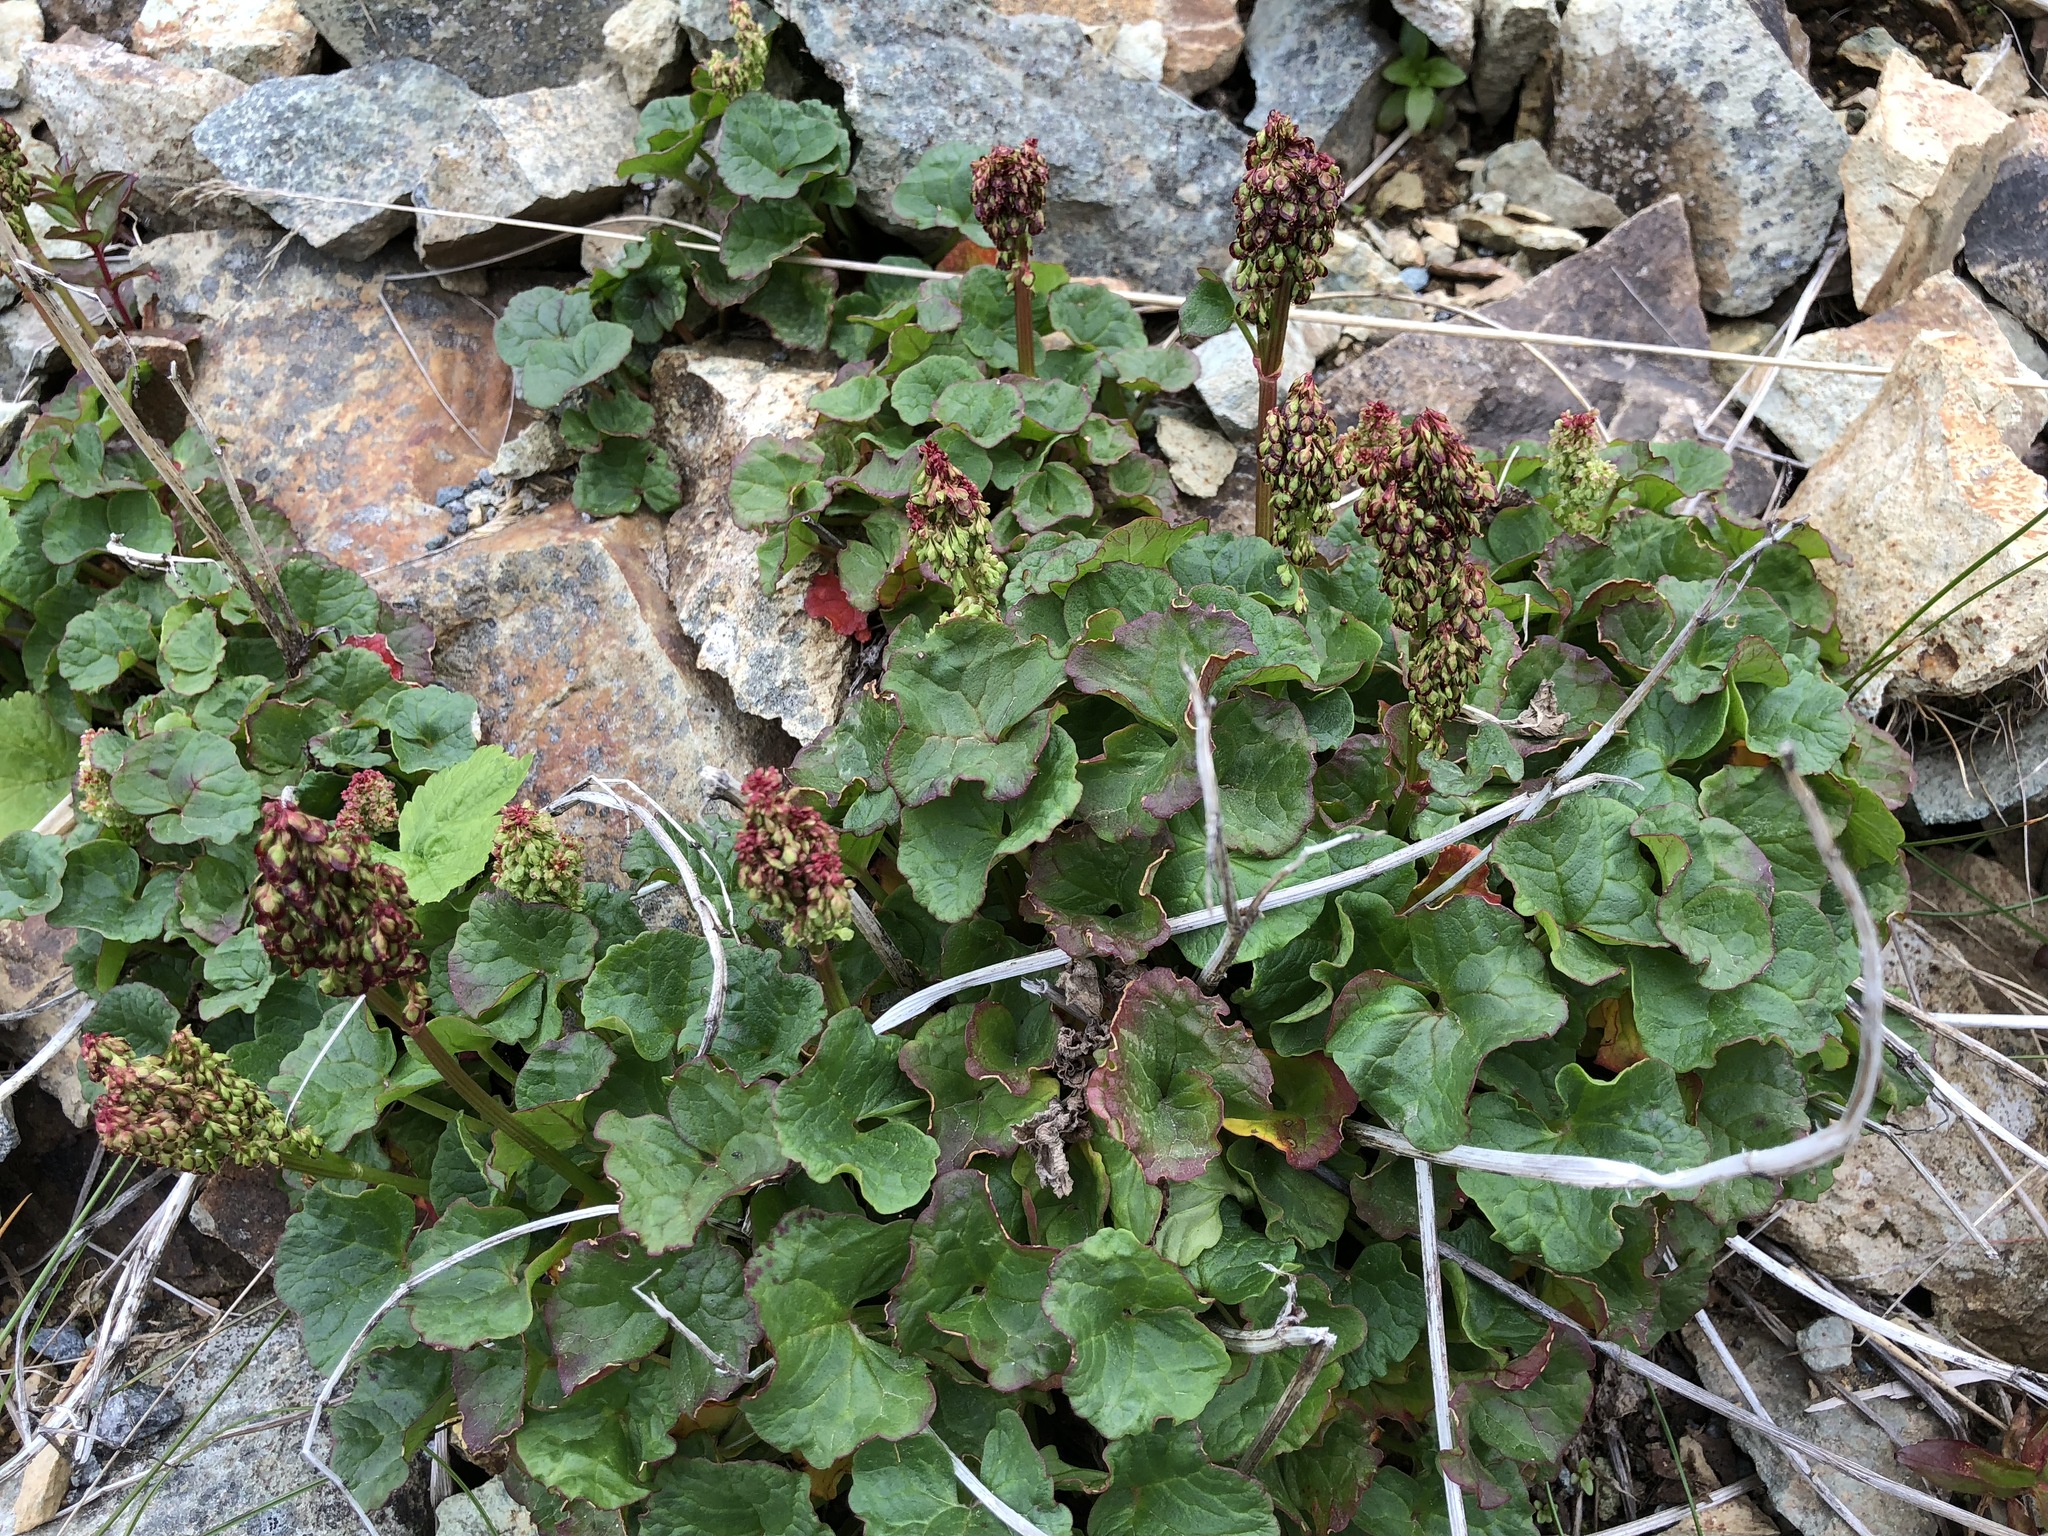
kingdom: Plantae
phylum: Tracheophyta
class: Magnoliopsida
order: Caryophyllales
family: Polygonaceae
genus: Oxyria
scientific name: Oxyria digyna
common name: Alpine mountain-sorrel
